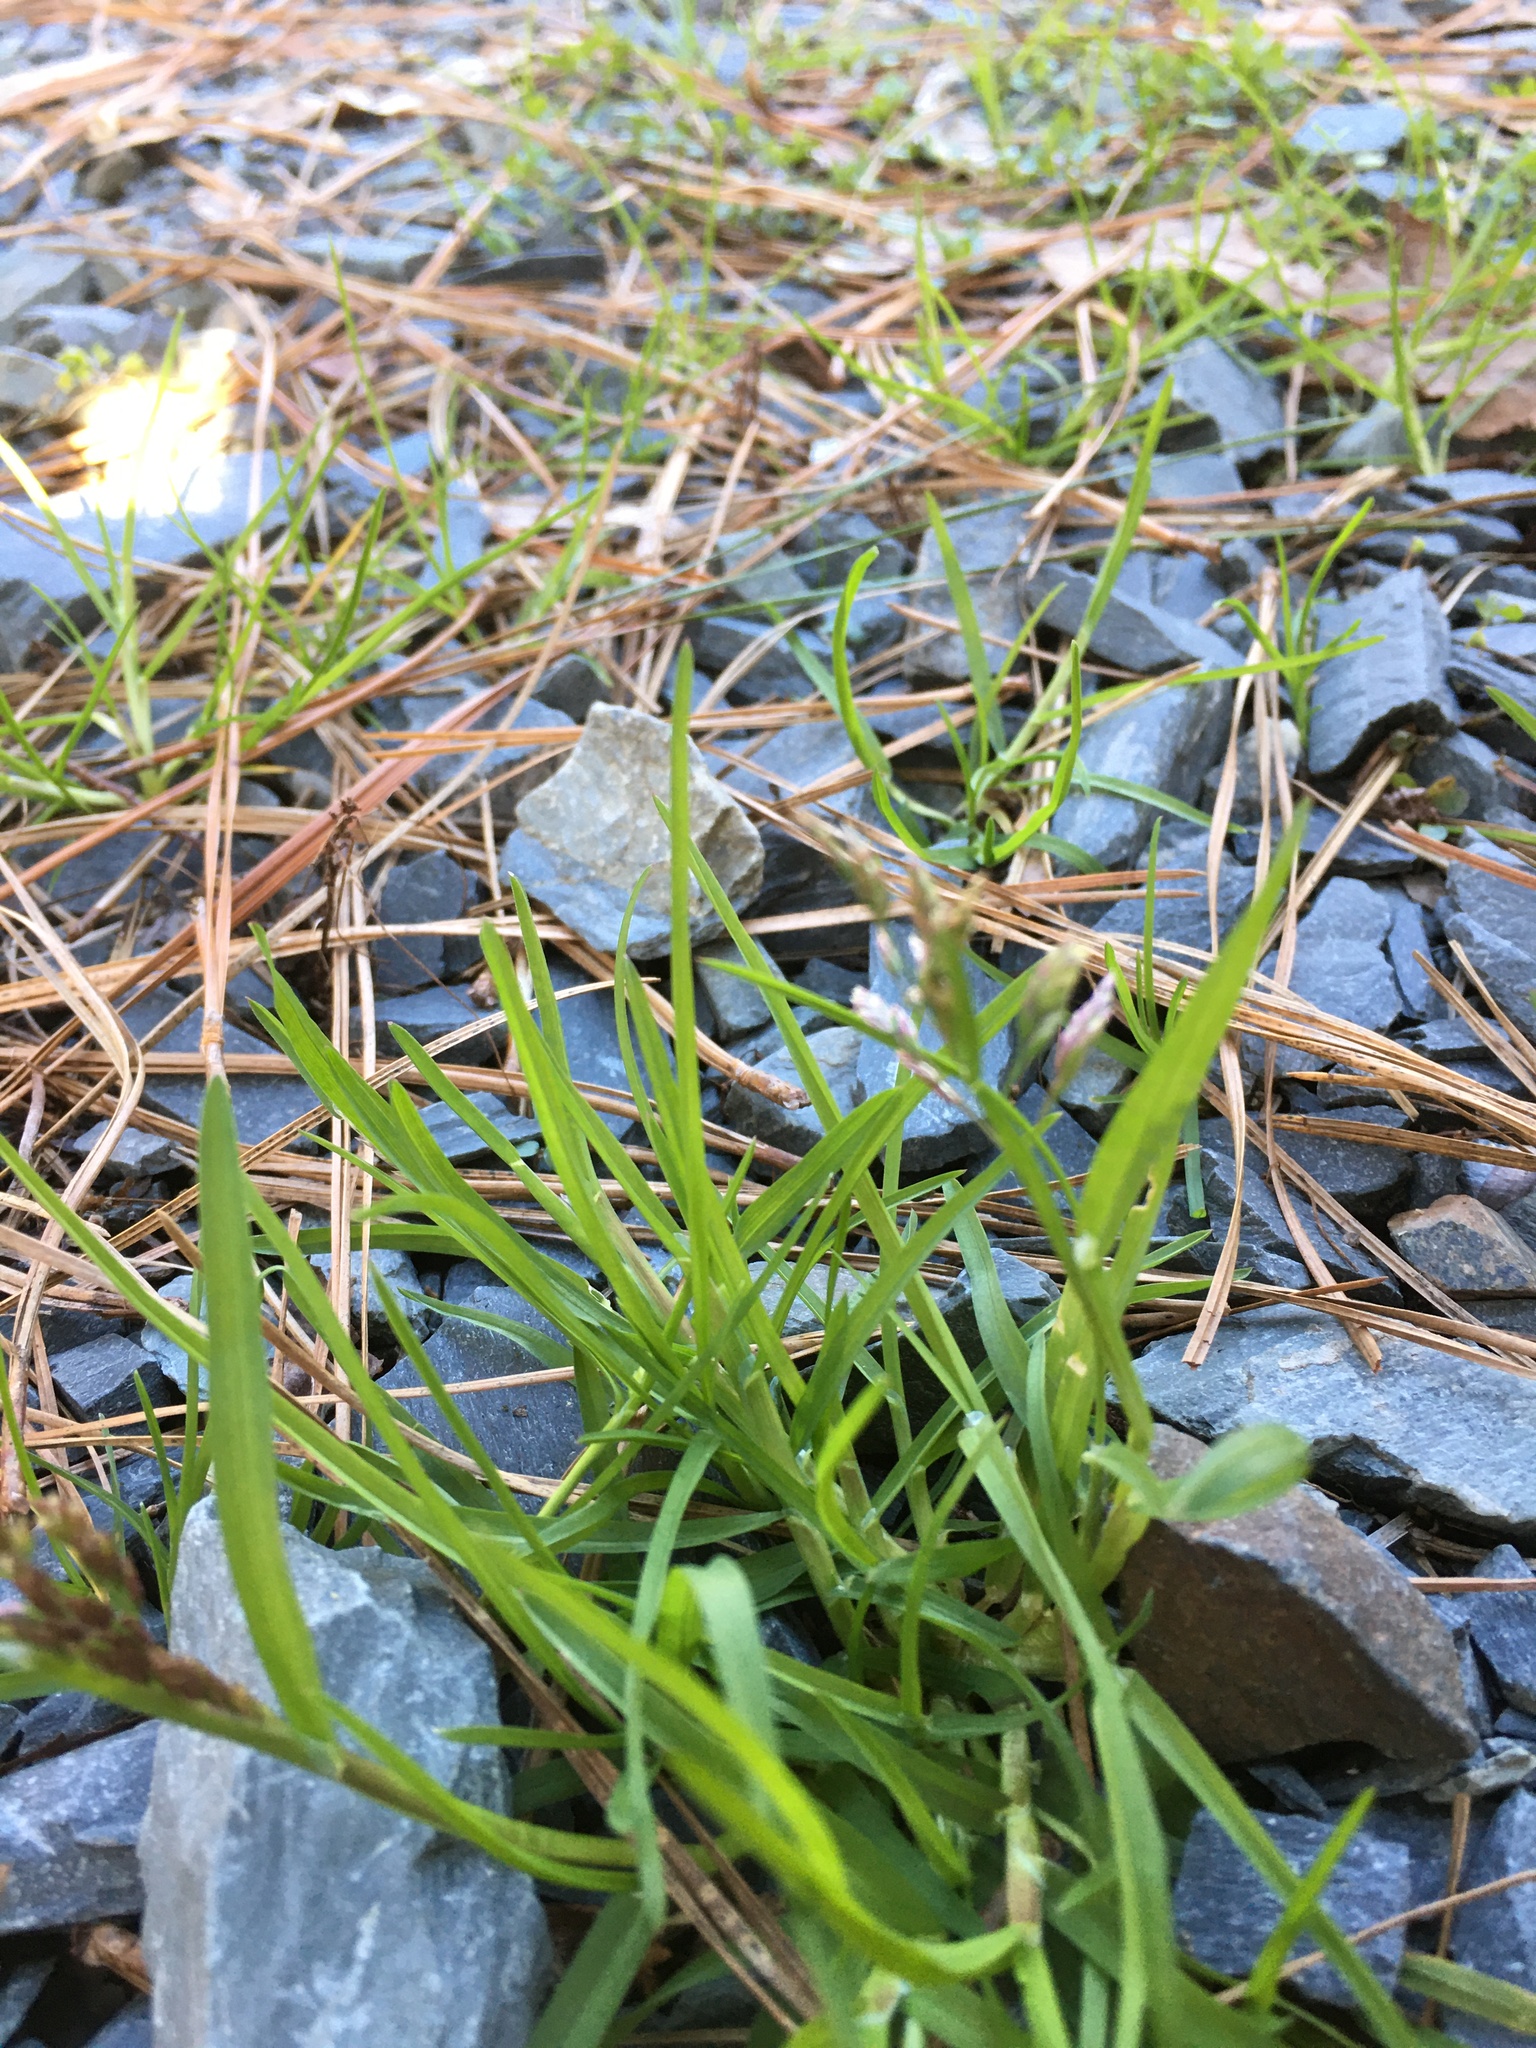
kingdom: Plantae
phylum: Tracheophyta
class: Liliopsida
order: Poales
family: Poaceae
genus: Poa
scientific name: Poa annua
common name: Annual bluegrass
